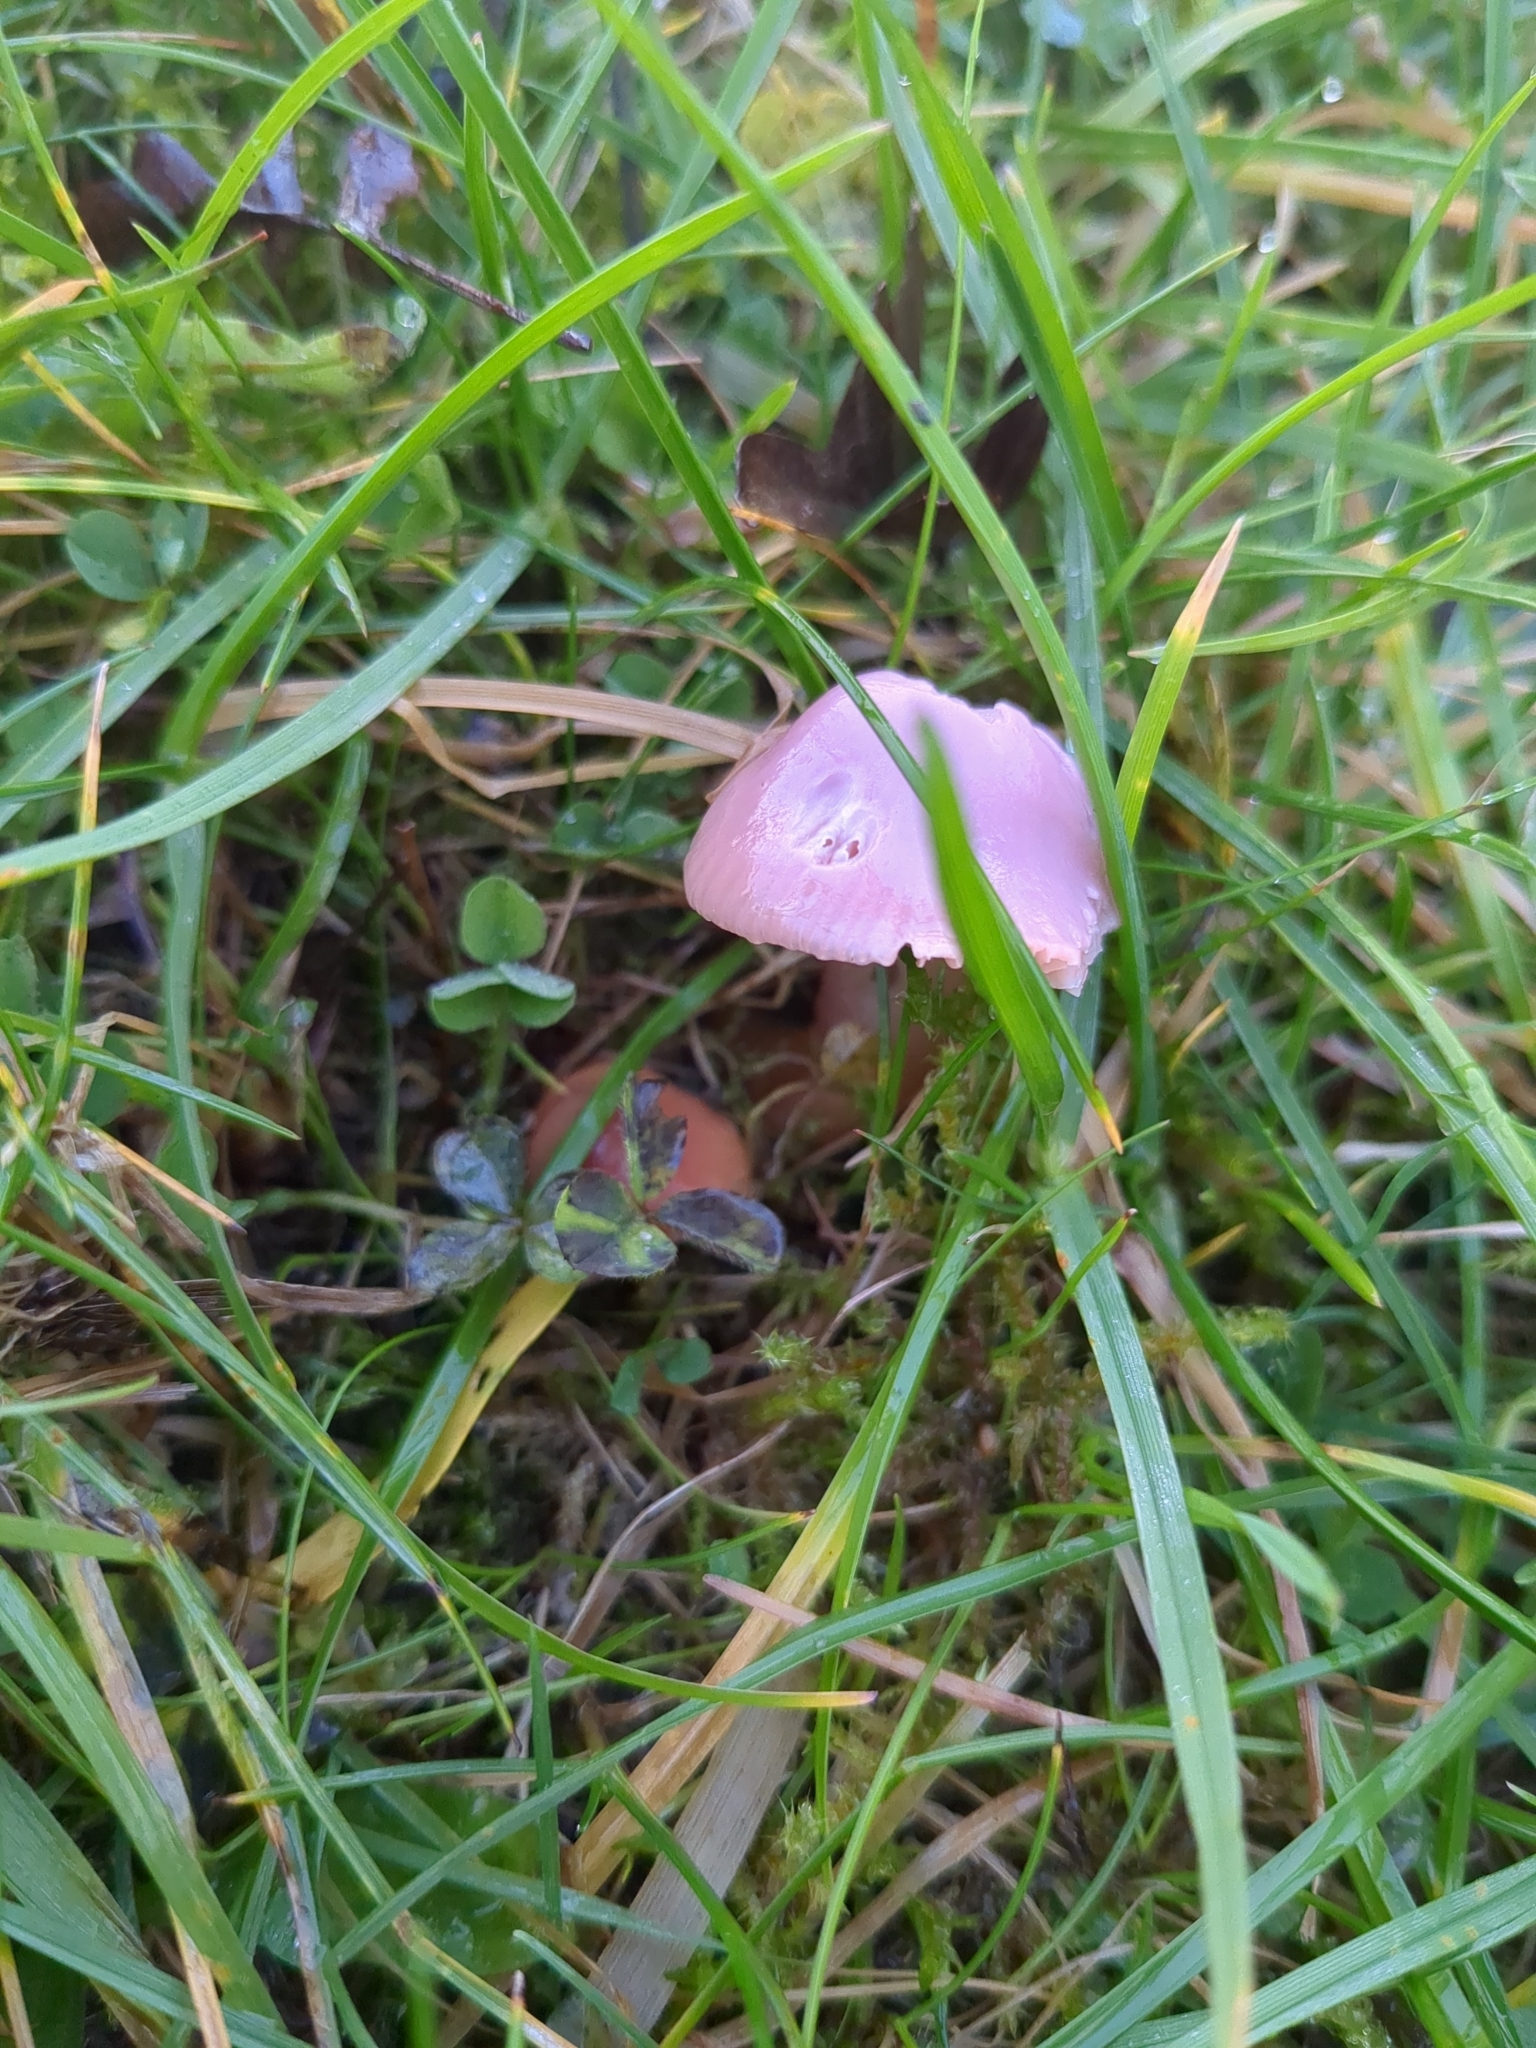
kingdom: Fungi
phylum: Basidiomycota
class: Agaricomycetes
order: Agaricales
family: Hygrophoraceae
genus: Gliophorus
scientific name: Gliophorus reginae
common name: Jubilee waxcap
